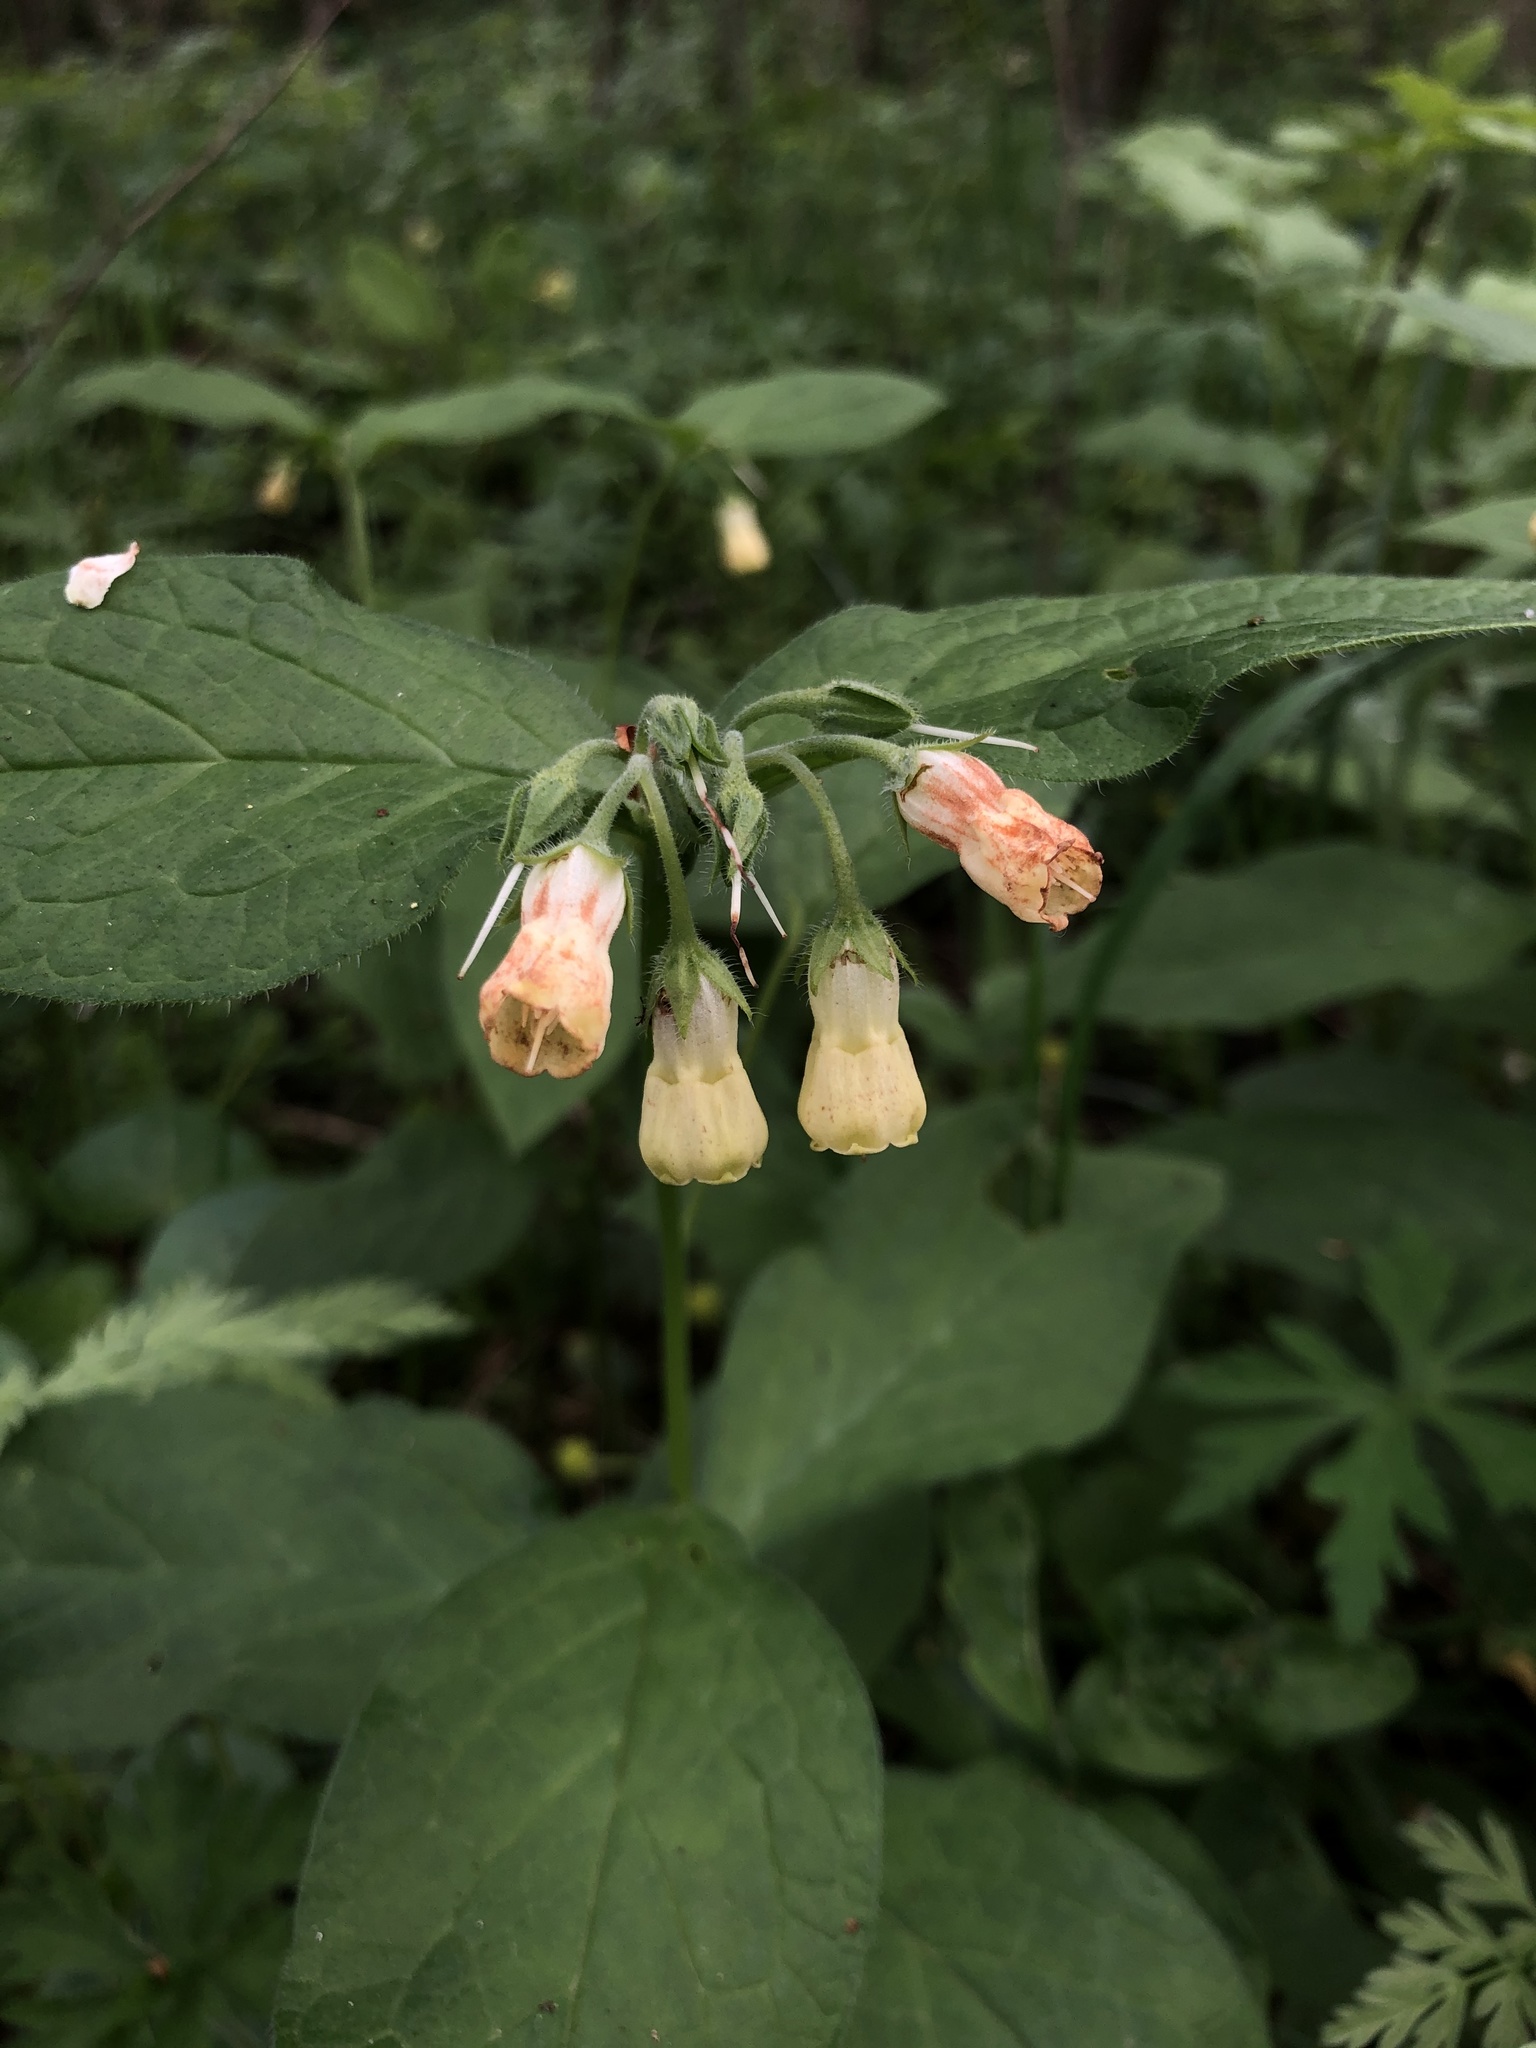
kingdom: Plantae
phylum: Tracheophyta
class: Magnoliopsida
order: Boraginales
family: Boraginaceae
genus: Symphytum
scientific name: Symphytum tuberosum
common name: Tuberous comfrey
